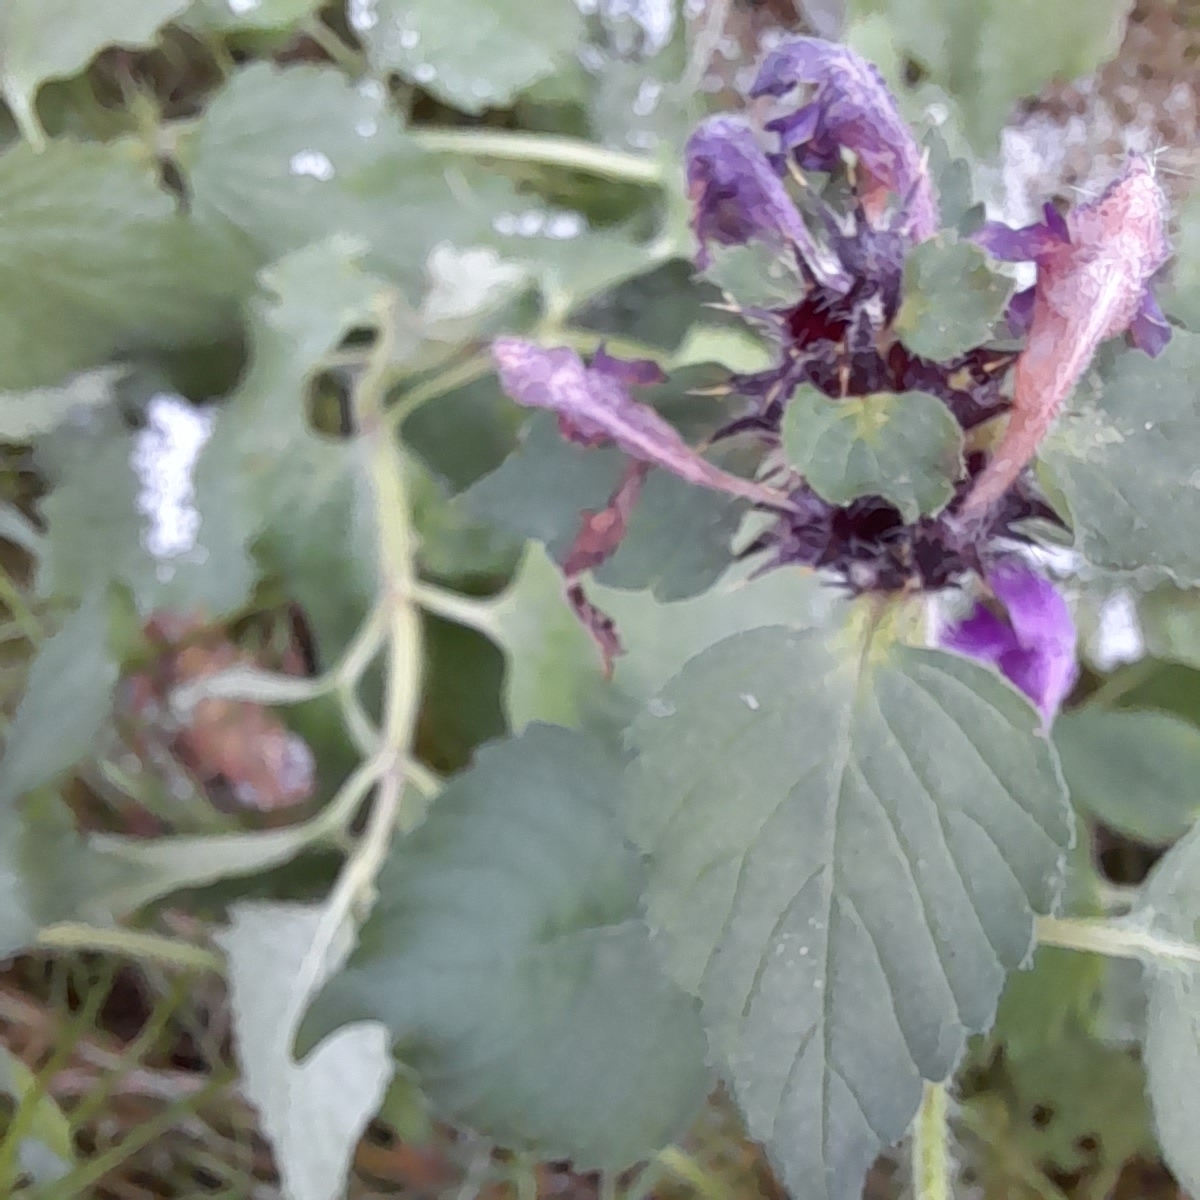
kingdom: Plantae
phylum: Tracheophyta
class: Magnoliopsida
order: Lamiales
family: Lamiaceae
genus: Galeopsis
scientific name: Galeopsis pubescens
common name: Downy hemp-nettle
